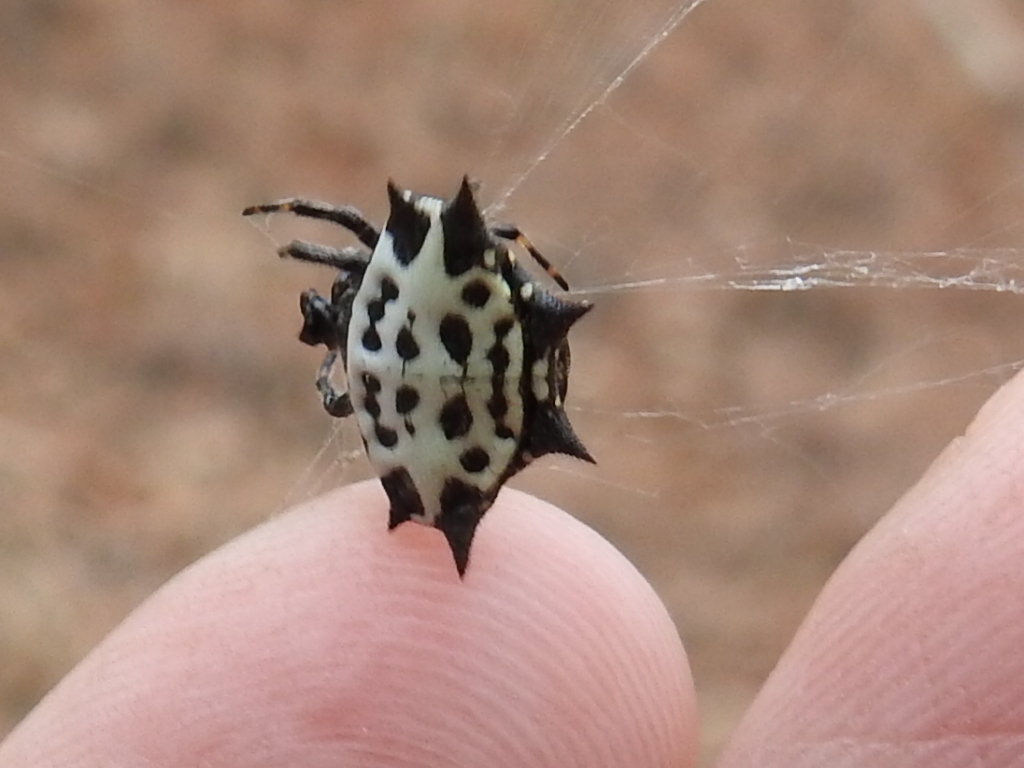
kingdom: Animalia
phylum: Arthropoda
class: Arachnida
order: Araneae
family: Araneidae
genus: Gasteracantha
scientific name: Gasteracantha cancriformis
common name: Orb weavers
